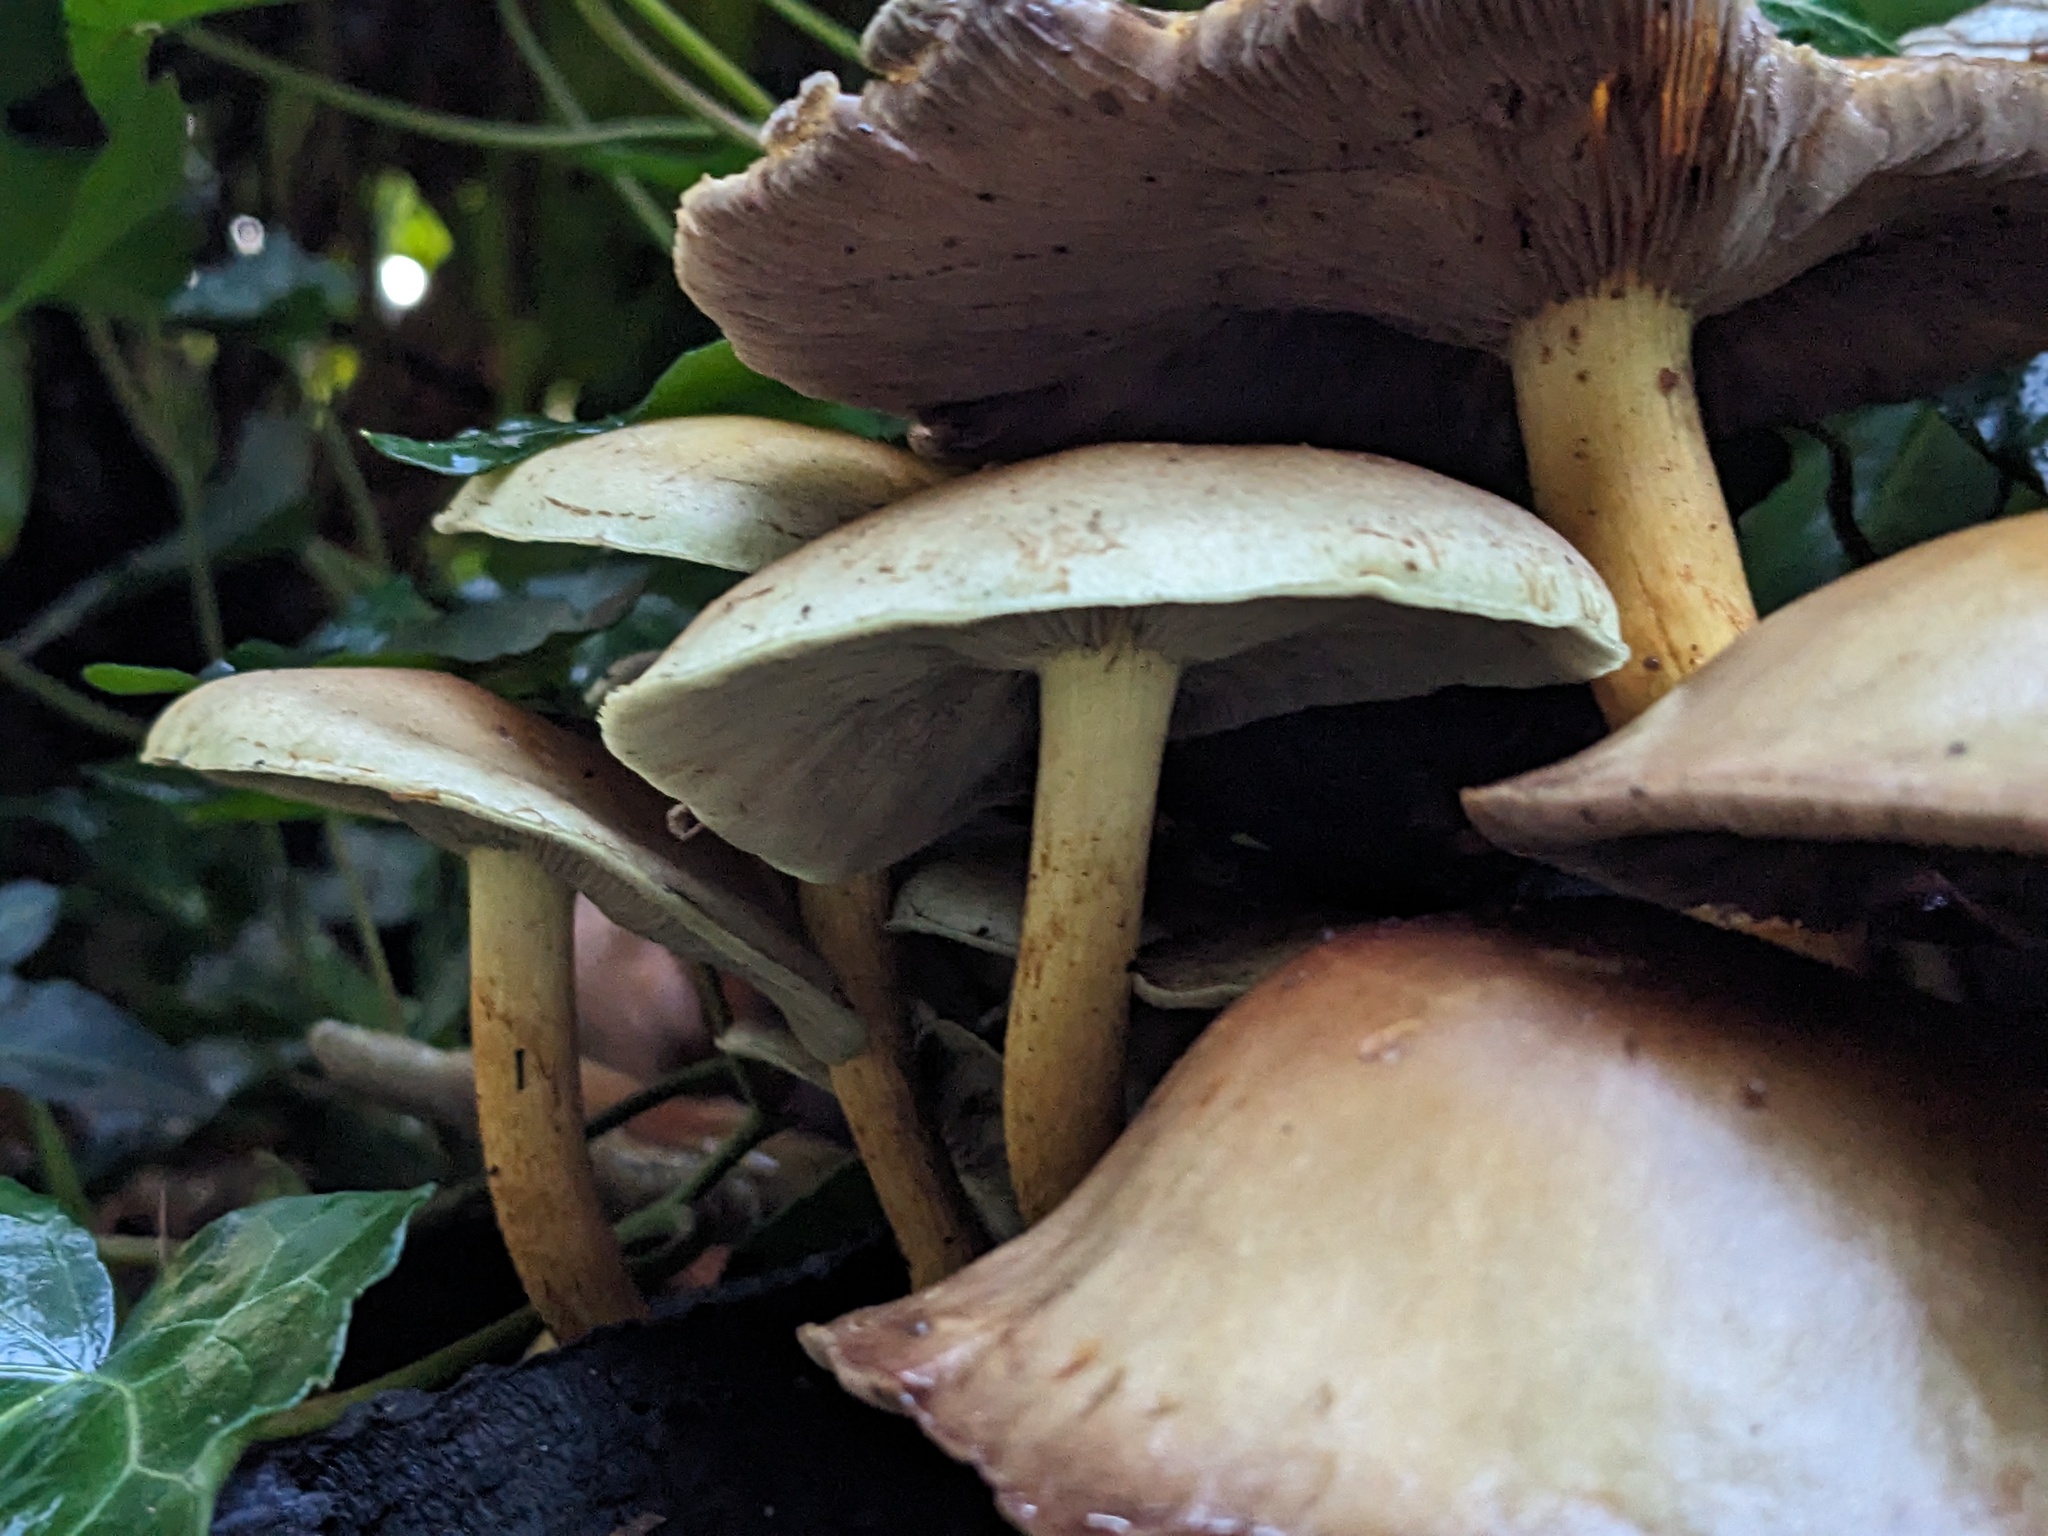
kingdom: Fungi
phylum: Basidiomycota
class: Agaricomycetes
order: Agaricales
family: Strophariaceae
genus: Hypholoma
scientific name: Hypholoma fasciculare
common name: Sulphur tuft
